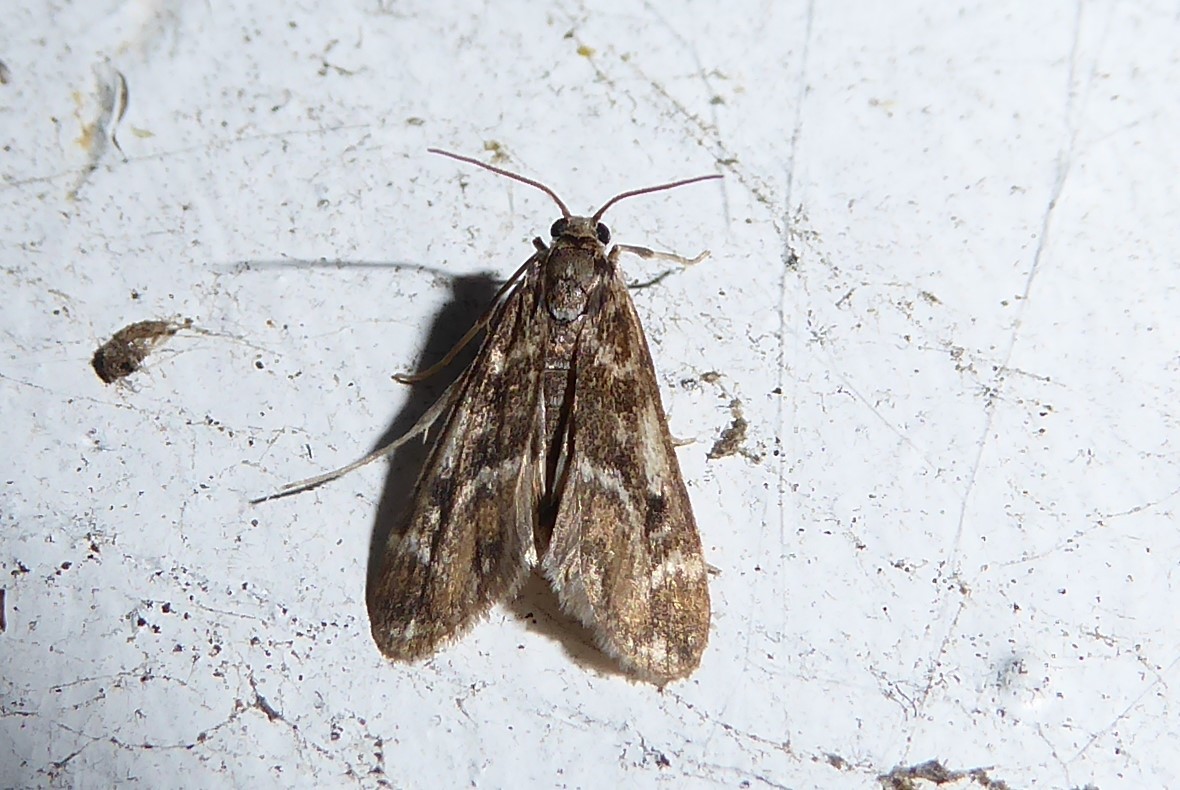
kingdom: Animalia
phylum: Arthropoda
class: Insecta
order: Lepidoptera
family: Crambidae
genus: Hygraula
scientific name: Hygraula nitens
